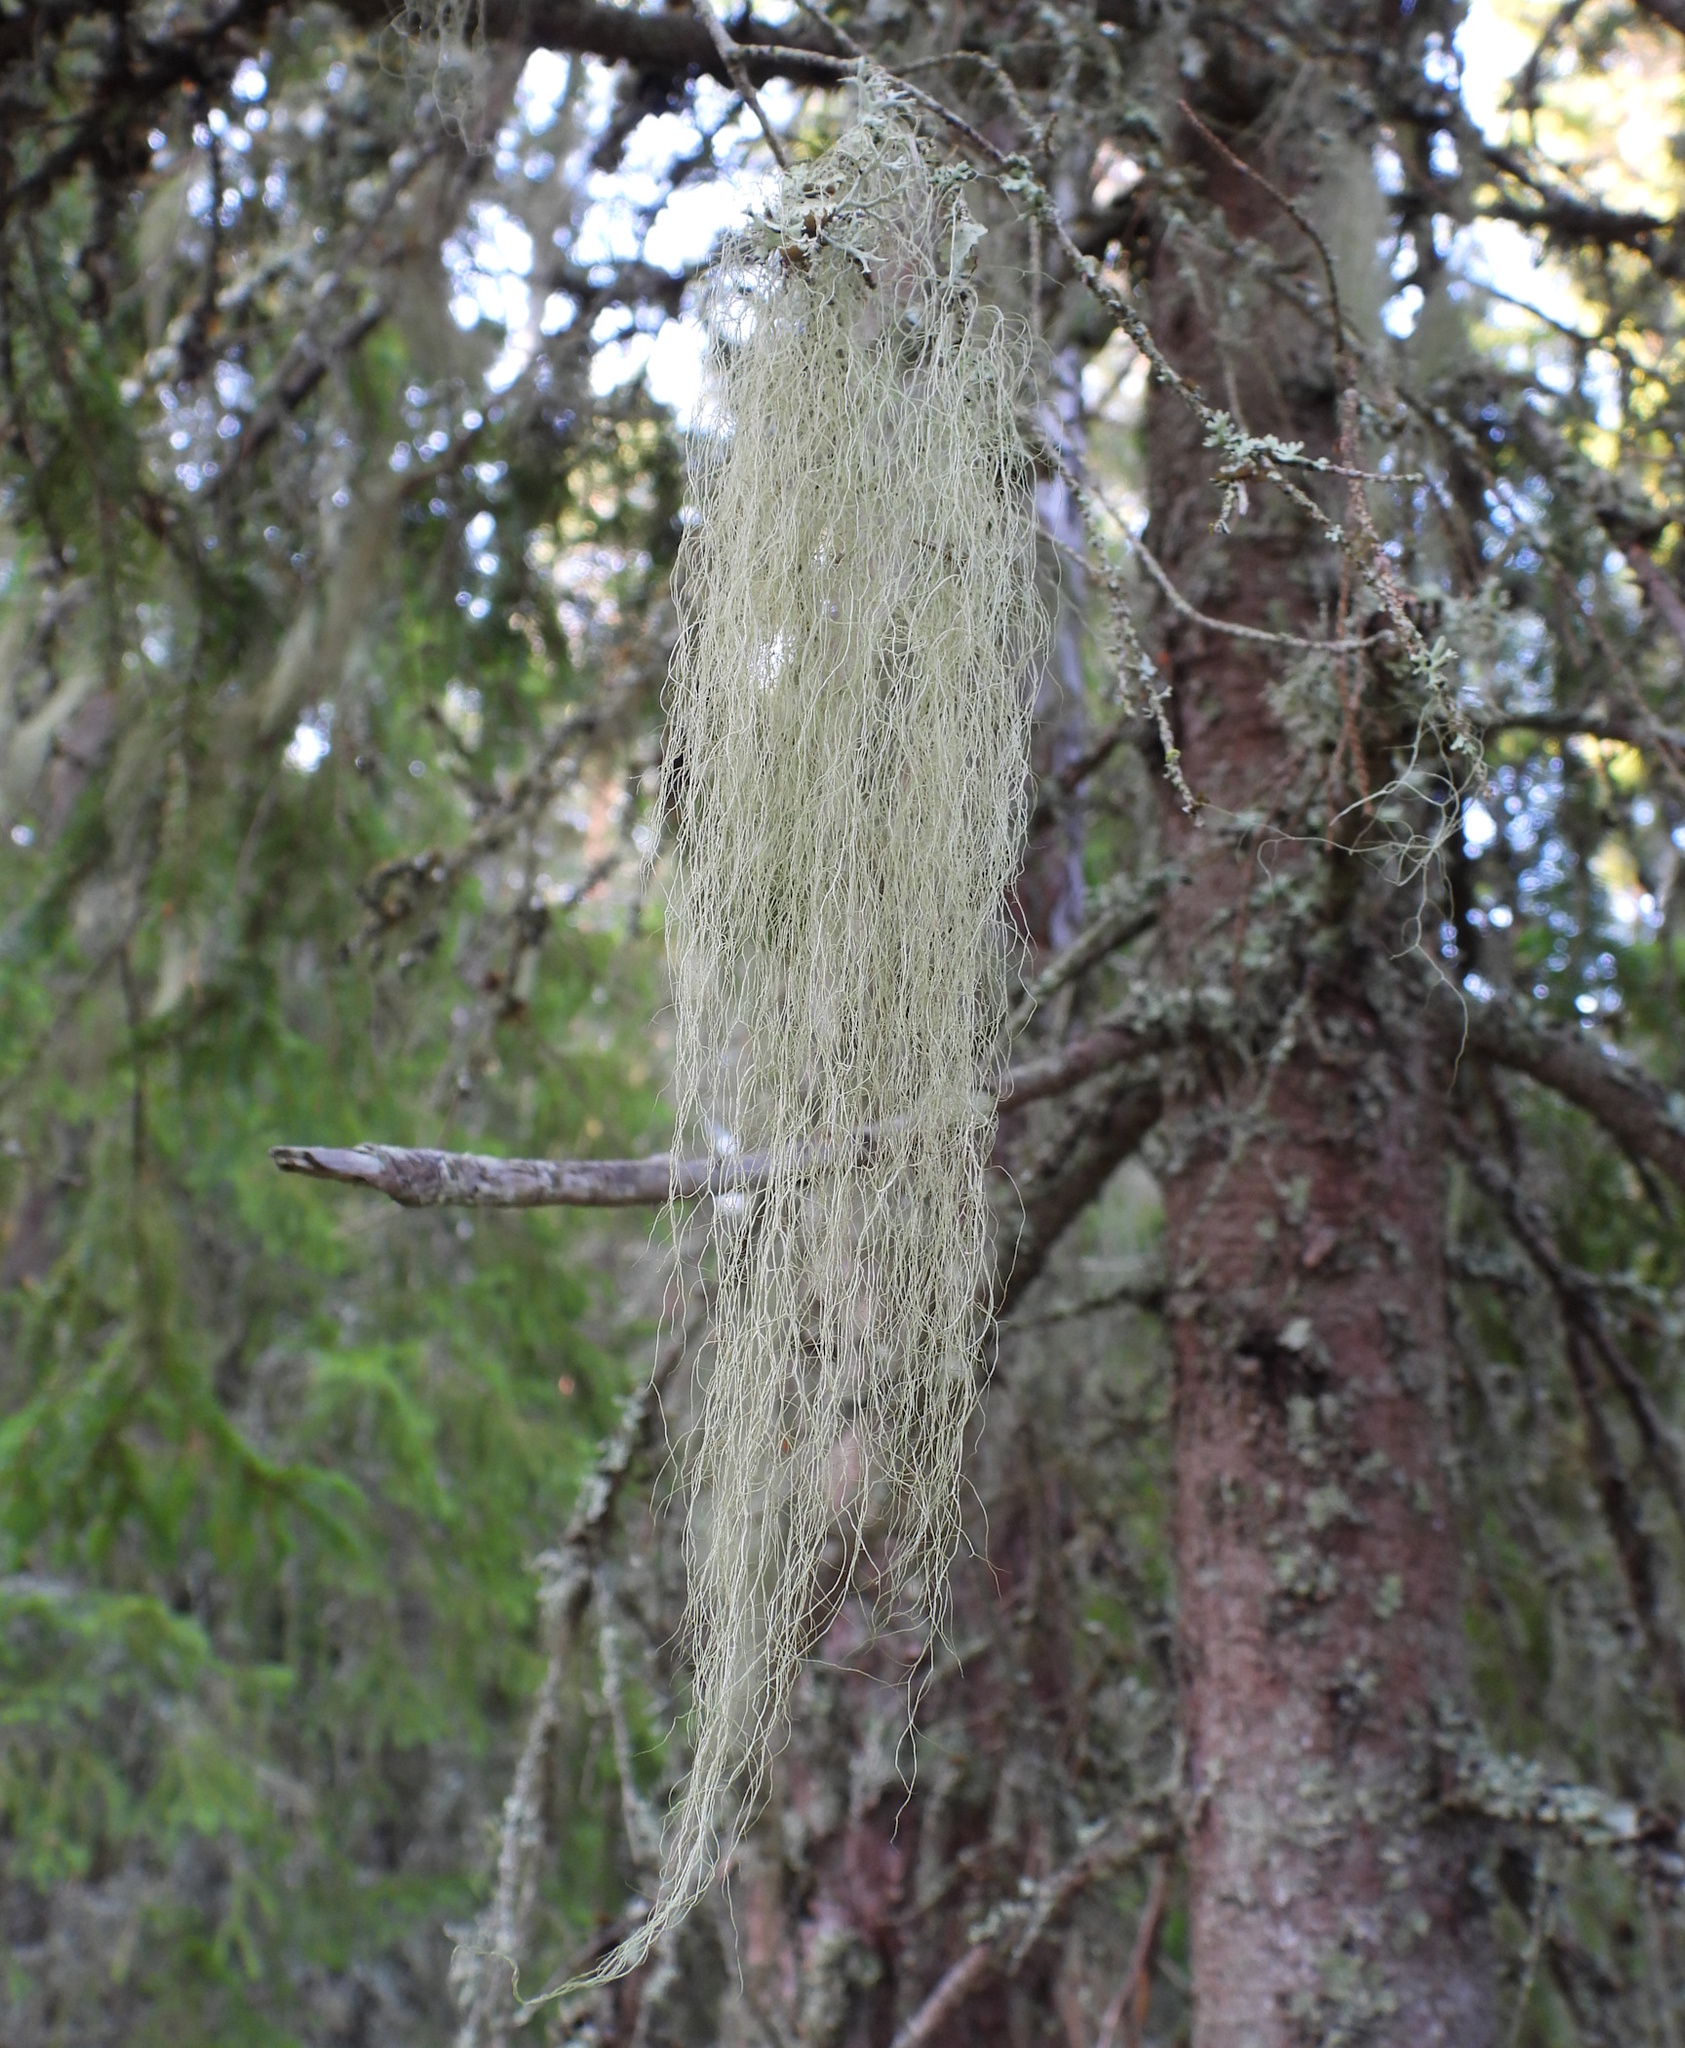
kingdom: Fungi
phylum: Ascomycota
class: Lecanoromycetes
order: Lecanorales
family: Parmeliaceae
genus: Bryoria
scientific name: Bryoria fuscescens
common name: Pale-footed horsehair lichen
